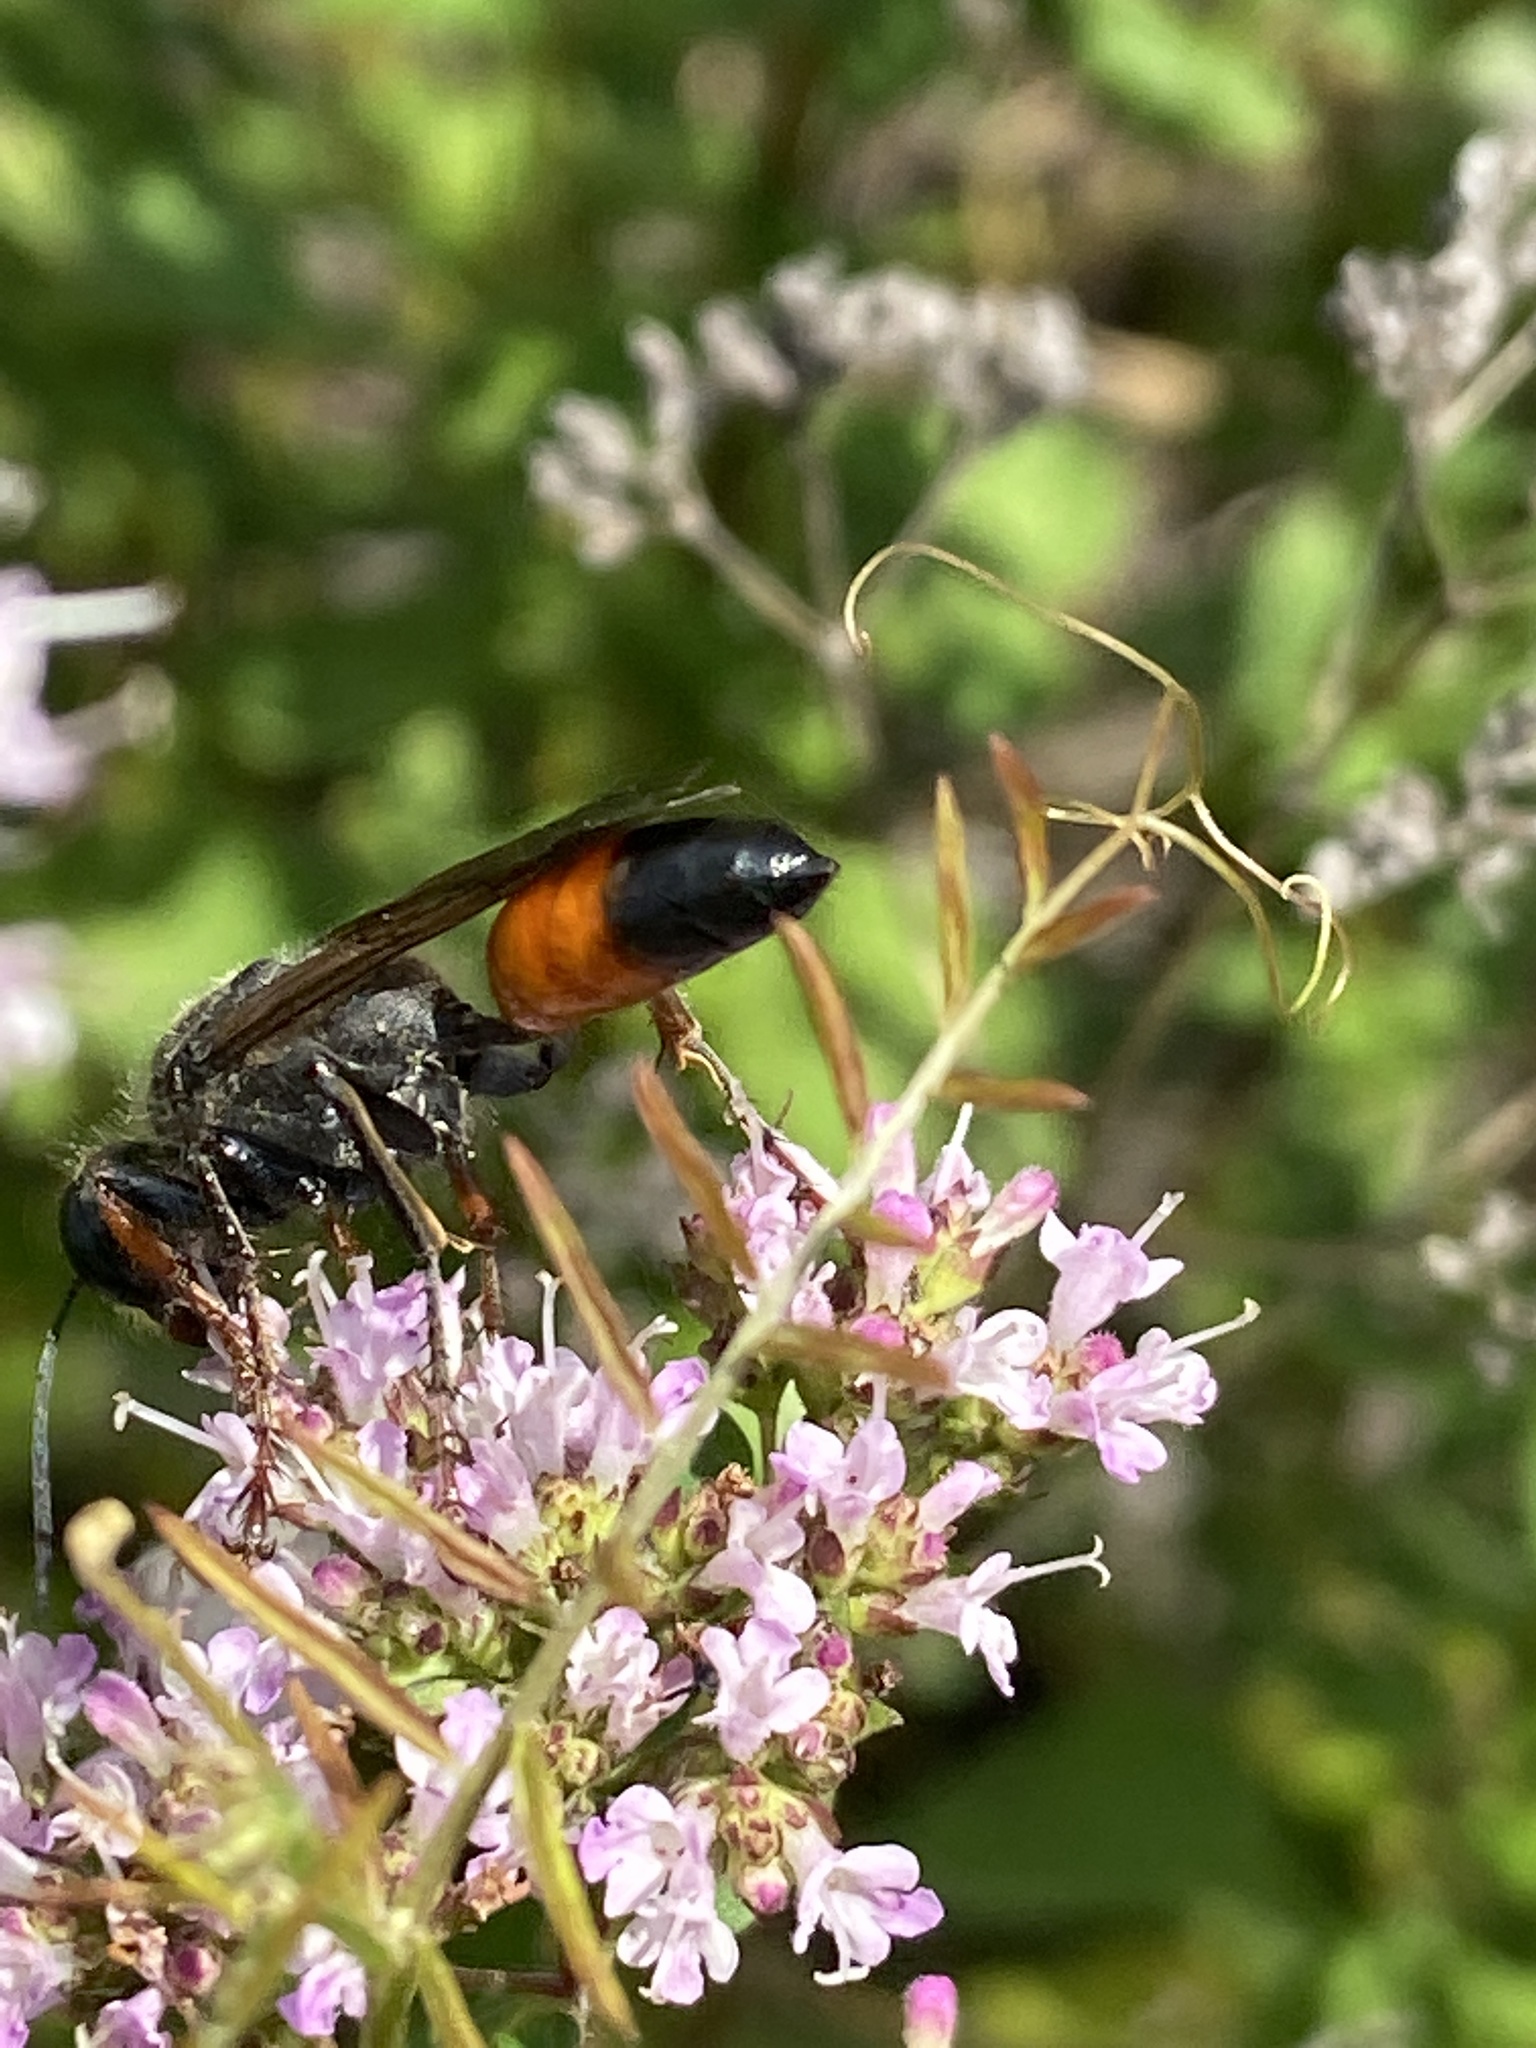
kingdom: Animalia
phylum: Arthropoda
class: Insecta
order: Hymenoptera
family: Sphecidae
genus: Sphex
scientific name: Sphex funerarius
